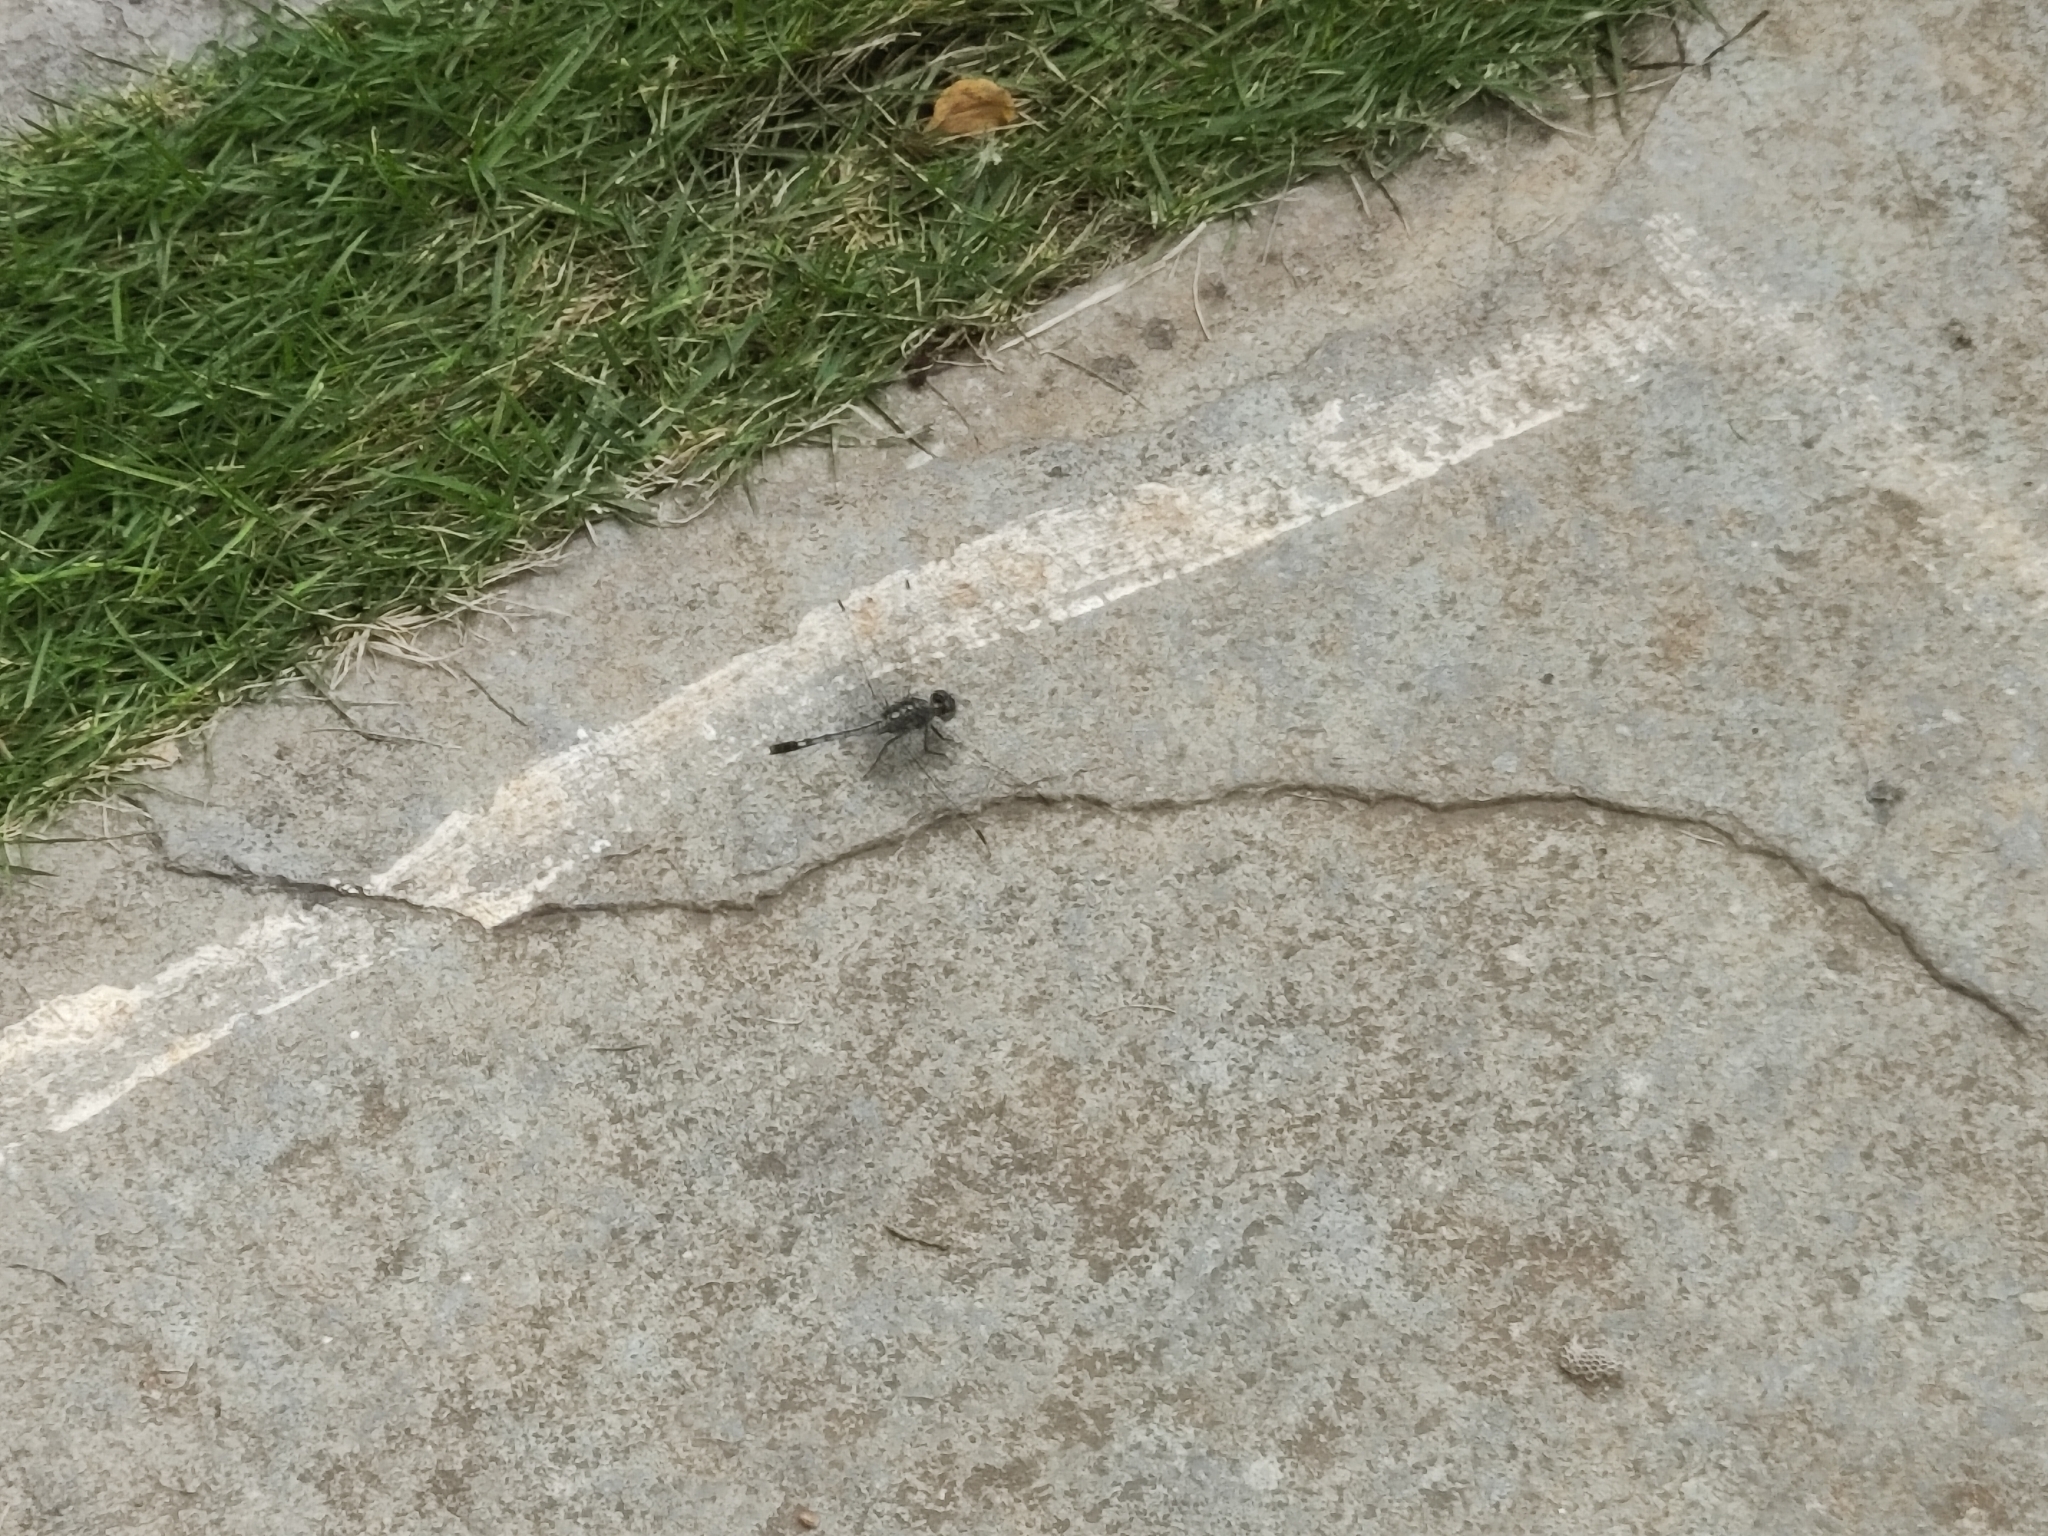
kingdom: Animalia
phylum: Arthropoda
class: Insecta
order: Odonata
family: Libellulidae
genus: Diplacodes
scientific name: Diplacodes trivialis
